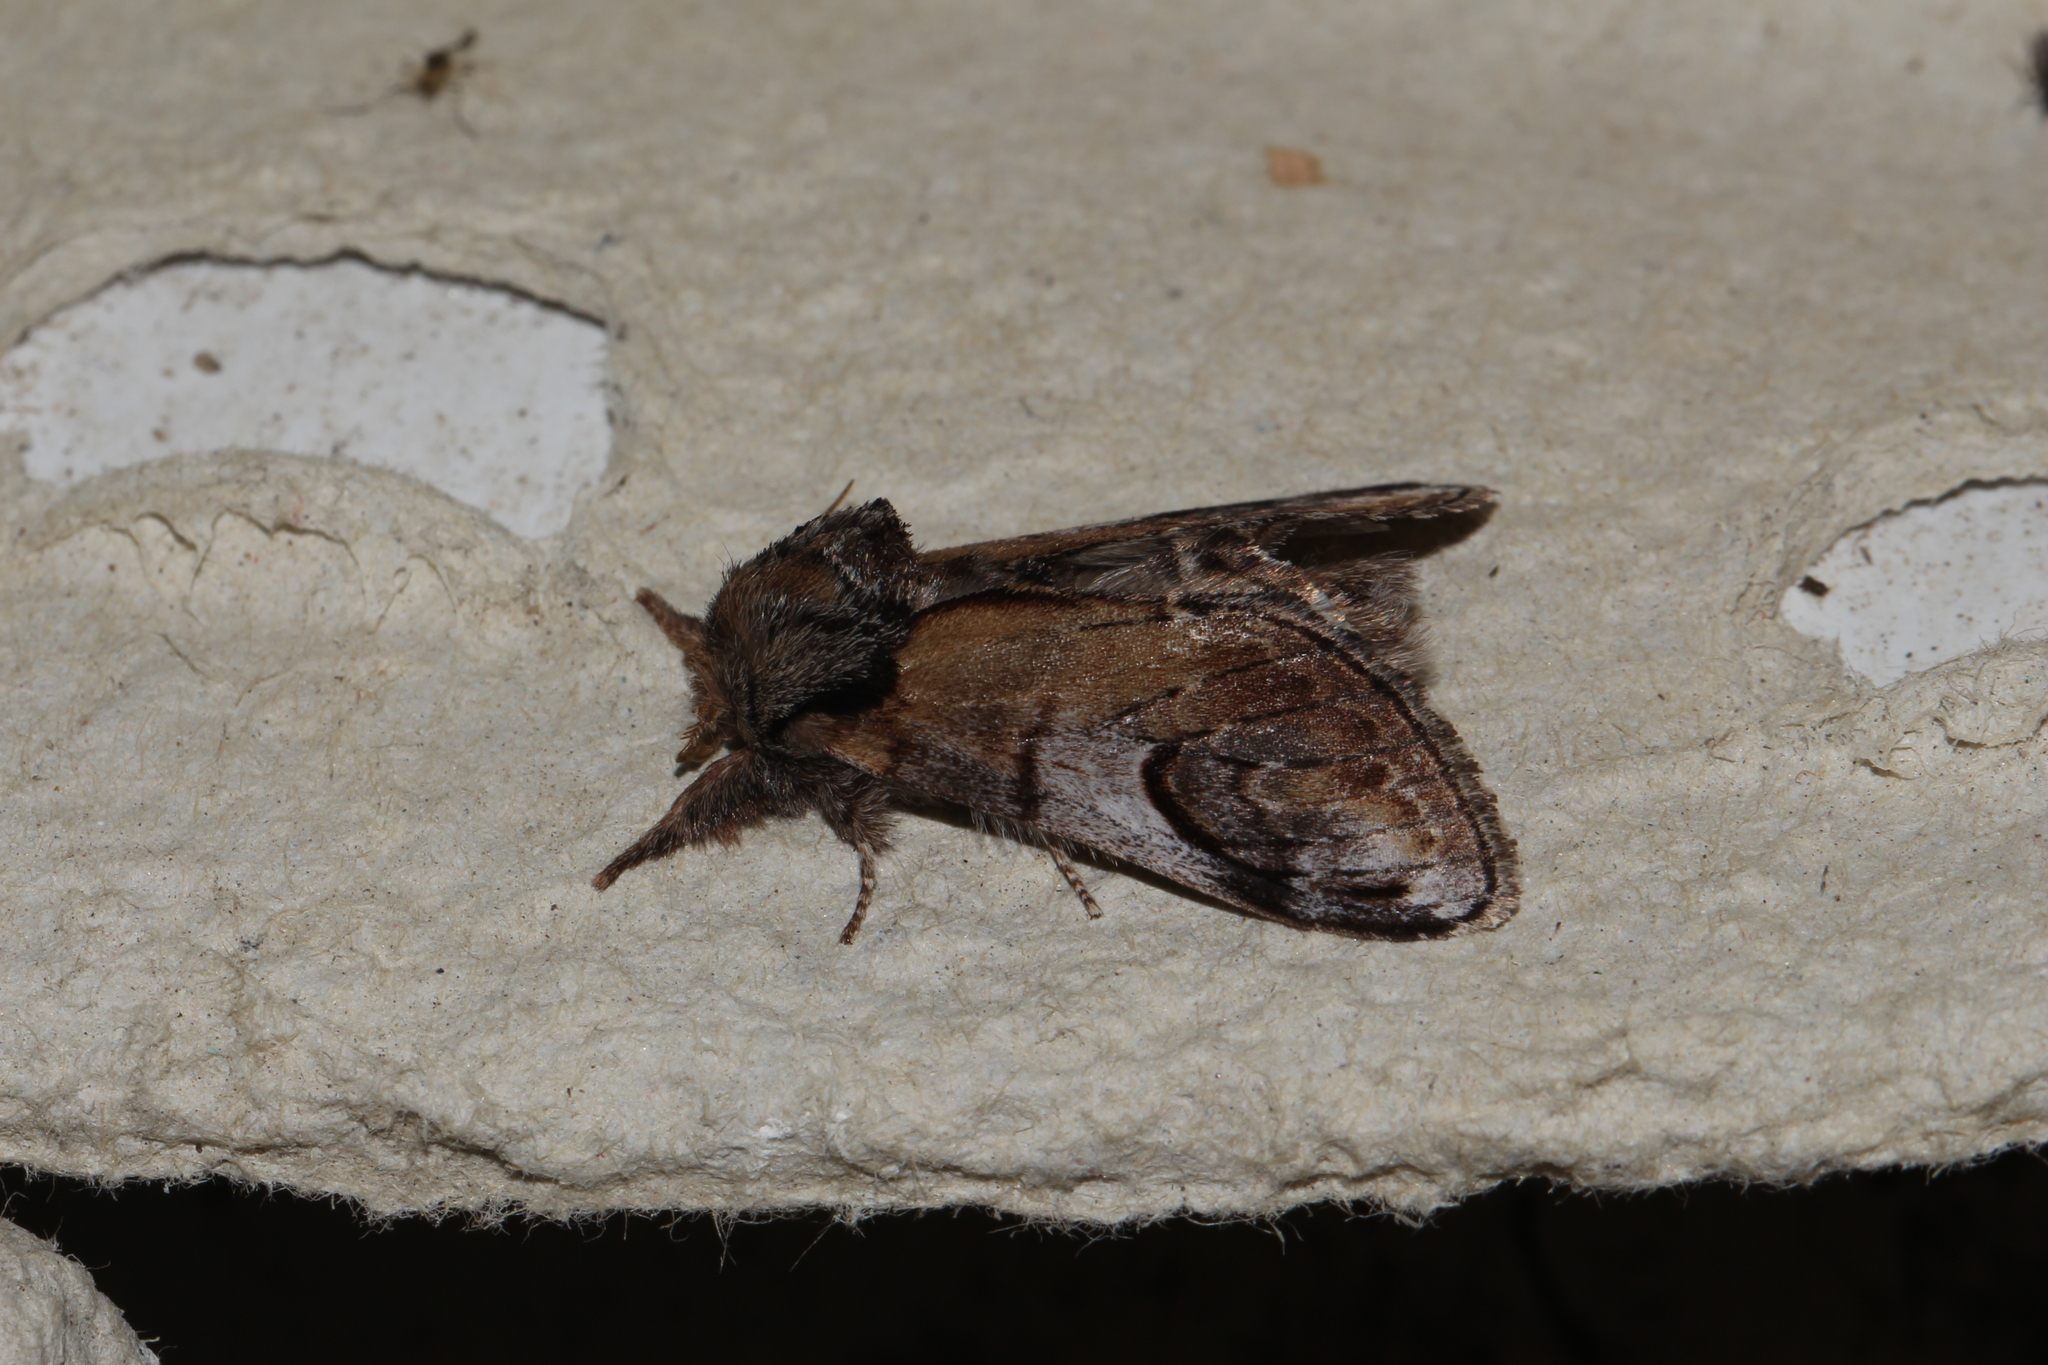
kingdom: Animalia
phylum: Arthropoda
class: Insecta
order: Lepidoptera
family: Notodontidae
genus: Notodonta
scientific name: Notodonta ziczac
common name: Pebble prominent
